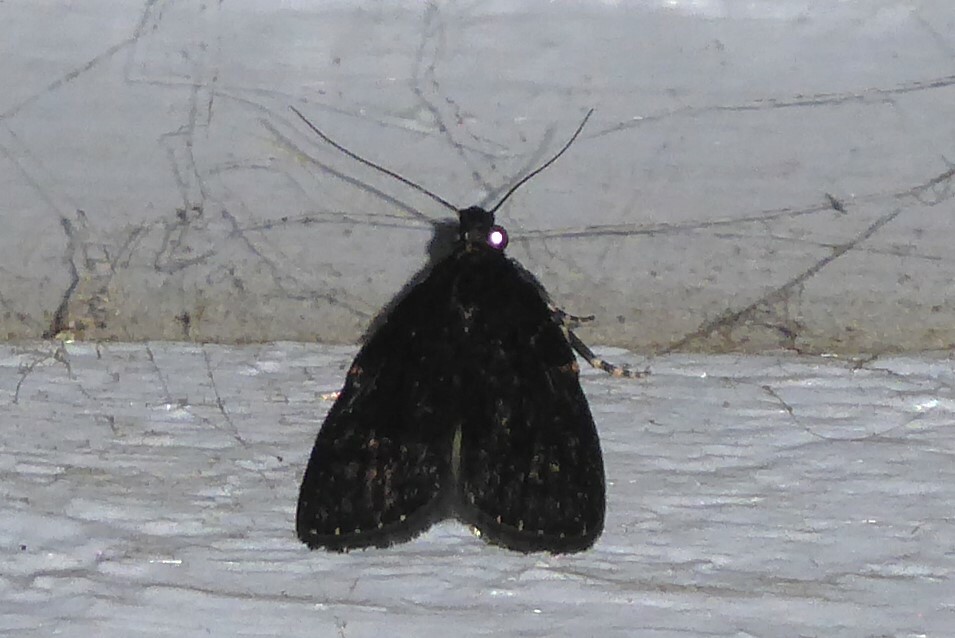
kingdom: Animalia
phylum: Arthropoda
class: Insecta
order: Lepidoptera
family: Pyralidae
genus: Stericta
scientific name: Stericta carbonalis
